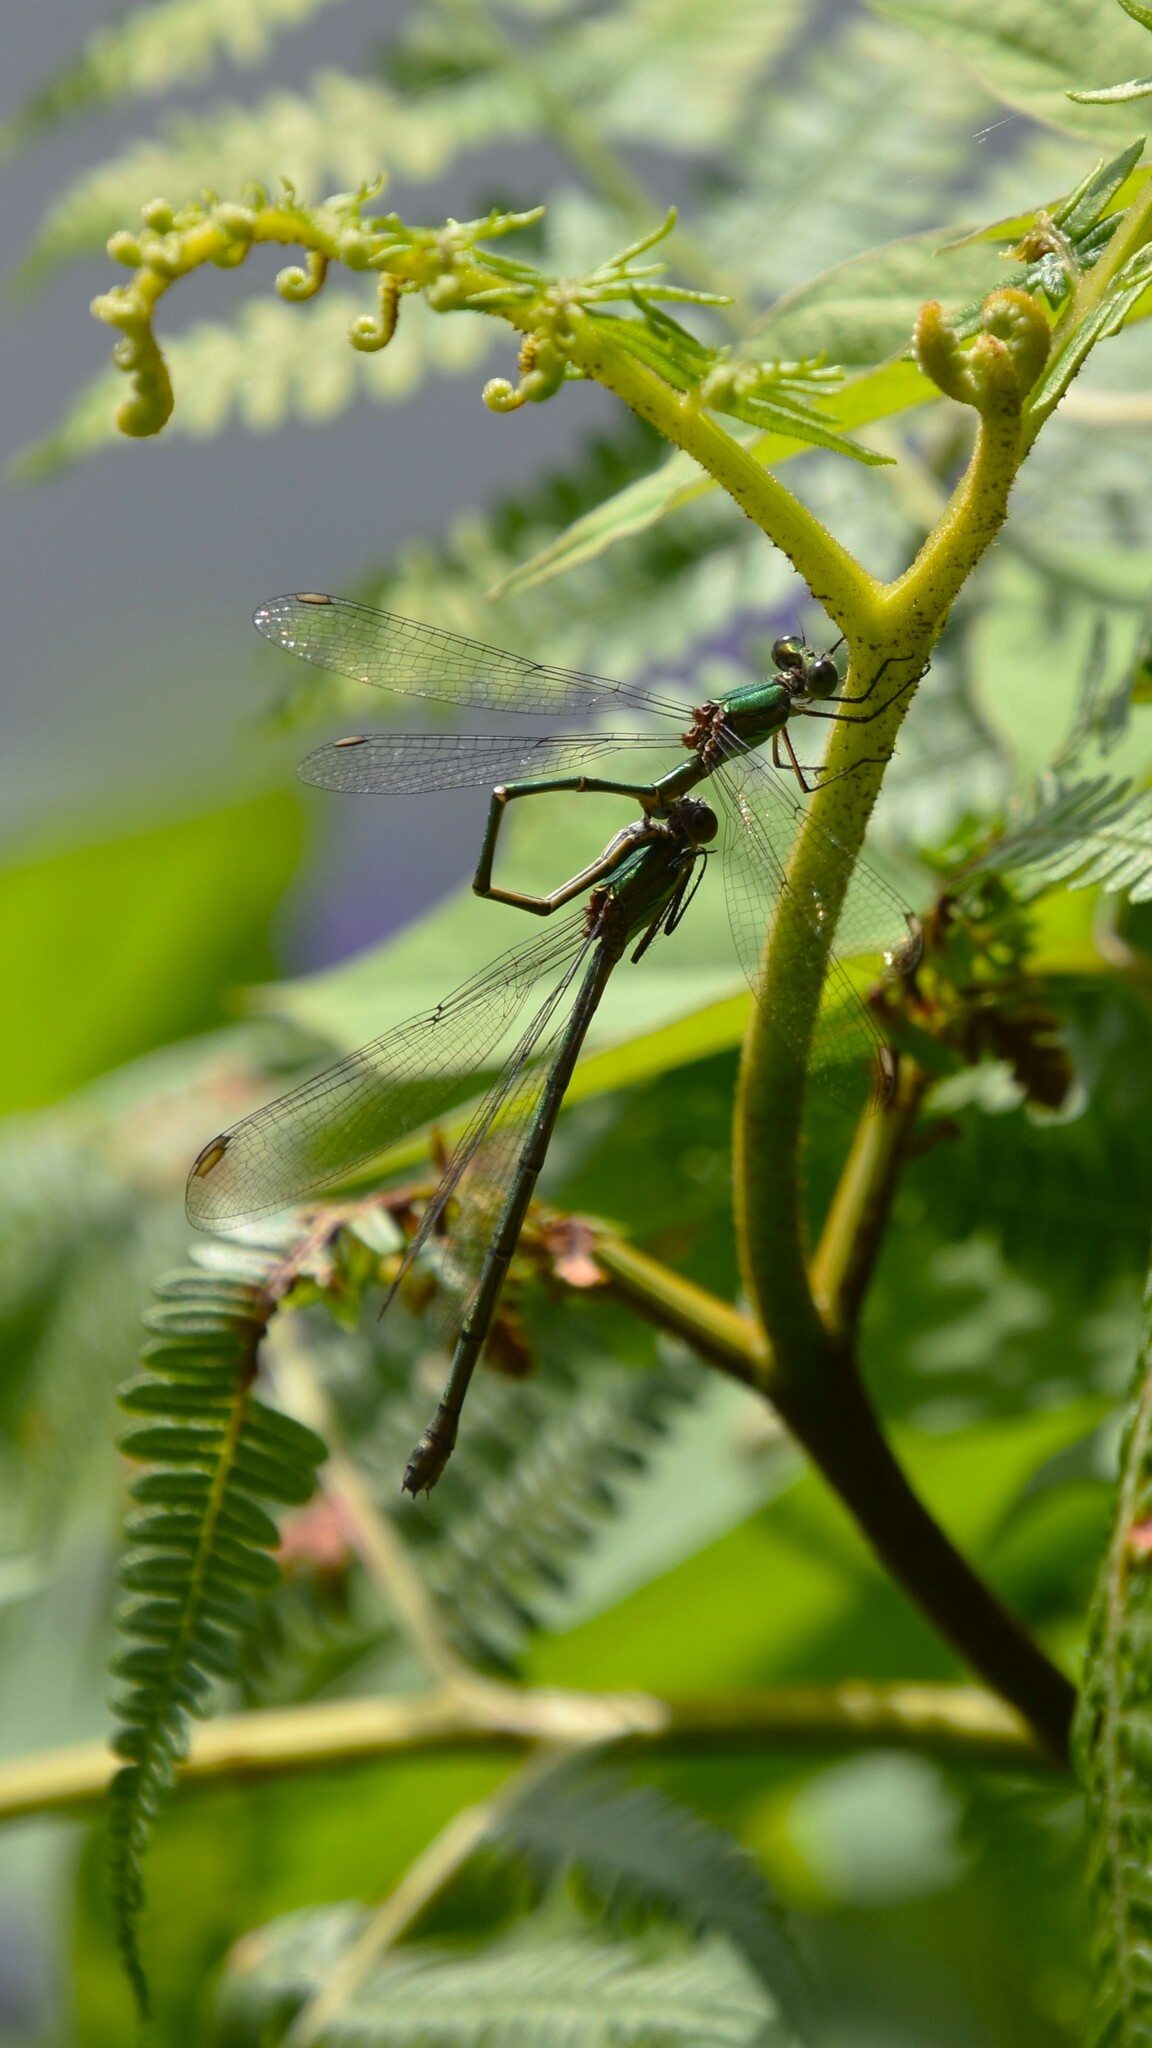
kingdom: Animalia
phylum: Arthropoda
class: Insecta
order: Odonata
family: Lestidae
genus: Chalcolestes
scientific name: Chalcolestes viridis
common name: Green emerald damselfly
